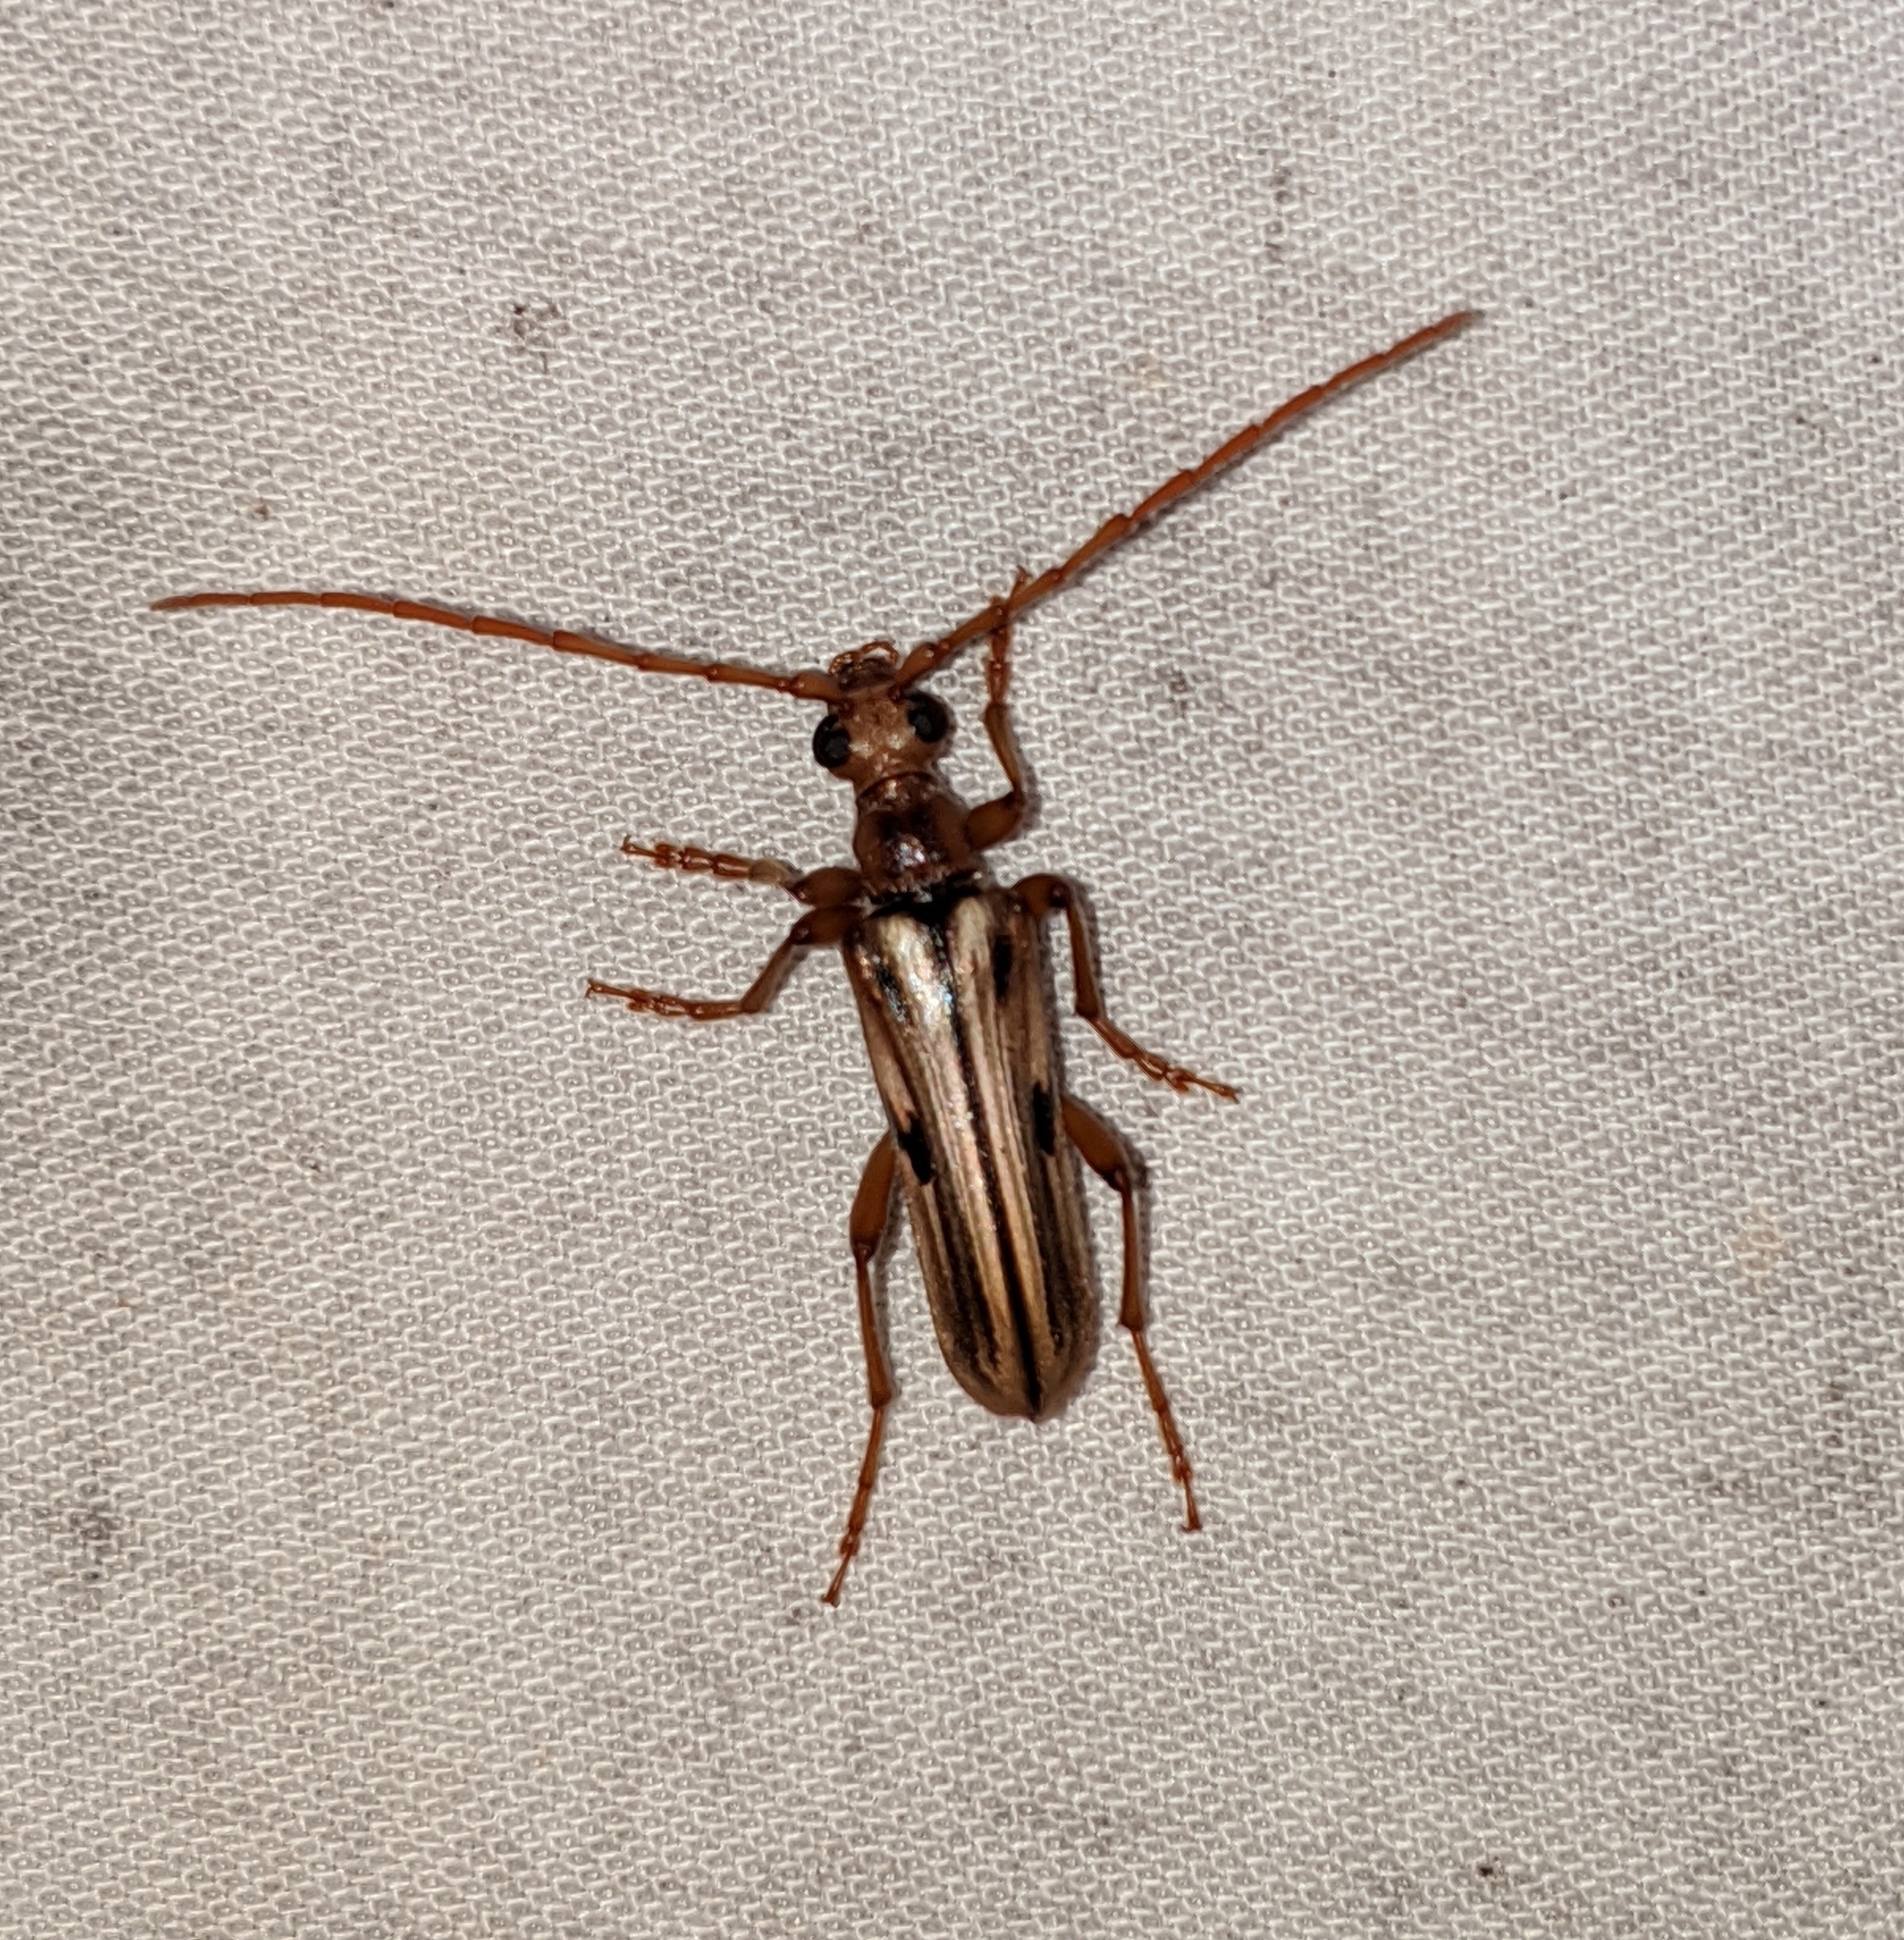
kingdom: Animalia
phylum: Arthropoda
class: Insecta
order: Coleoptera
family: Cerambycidae
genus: Ortholeptura
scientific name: Ortholeptura valida
